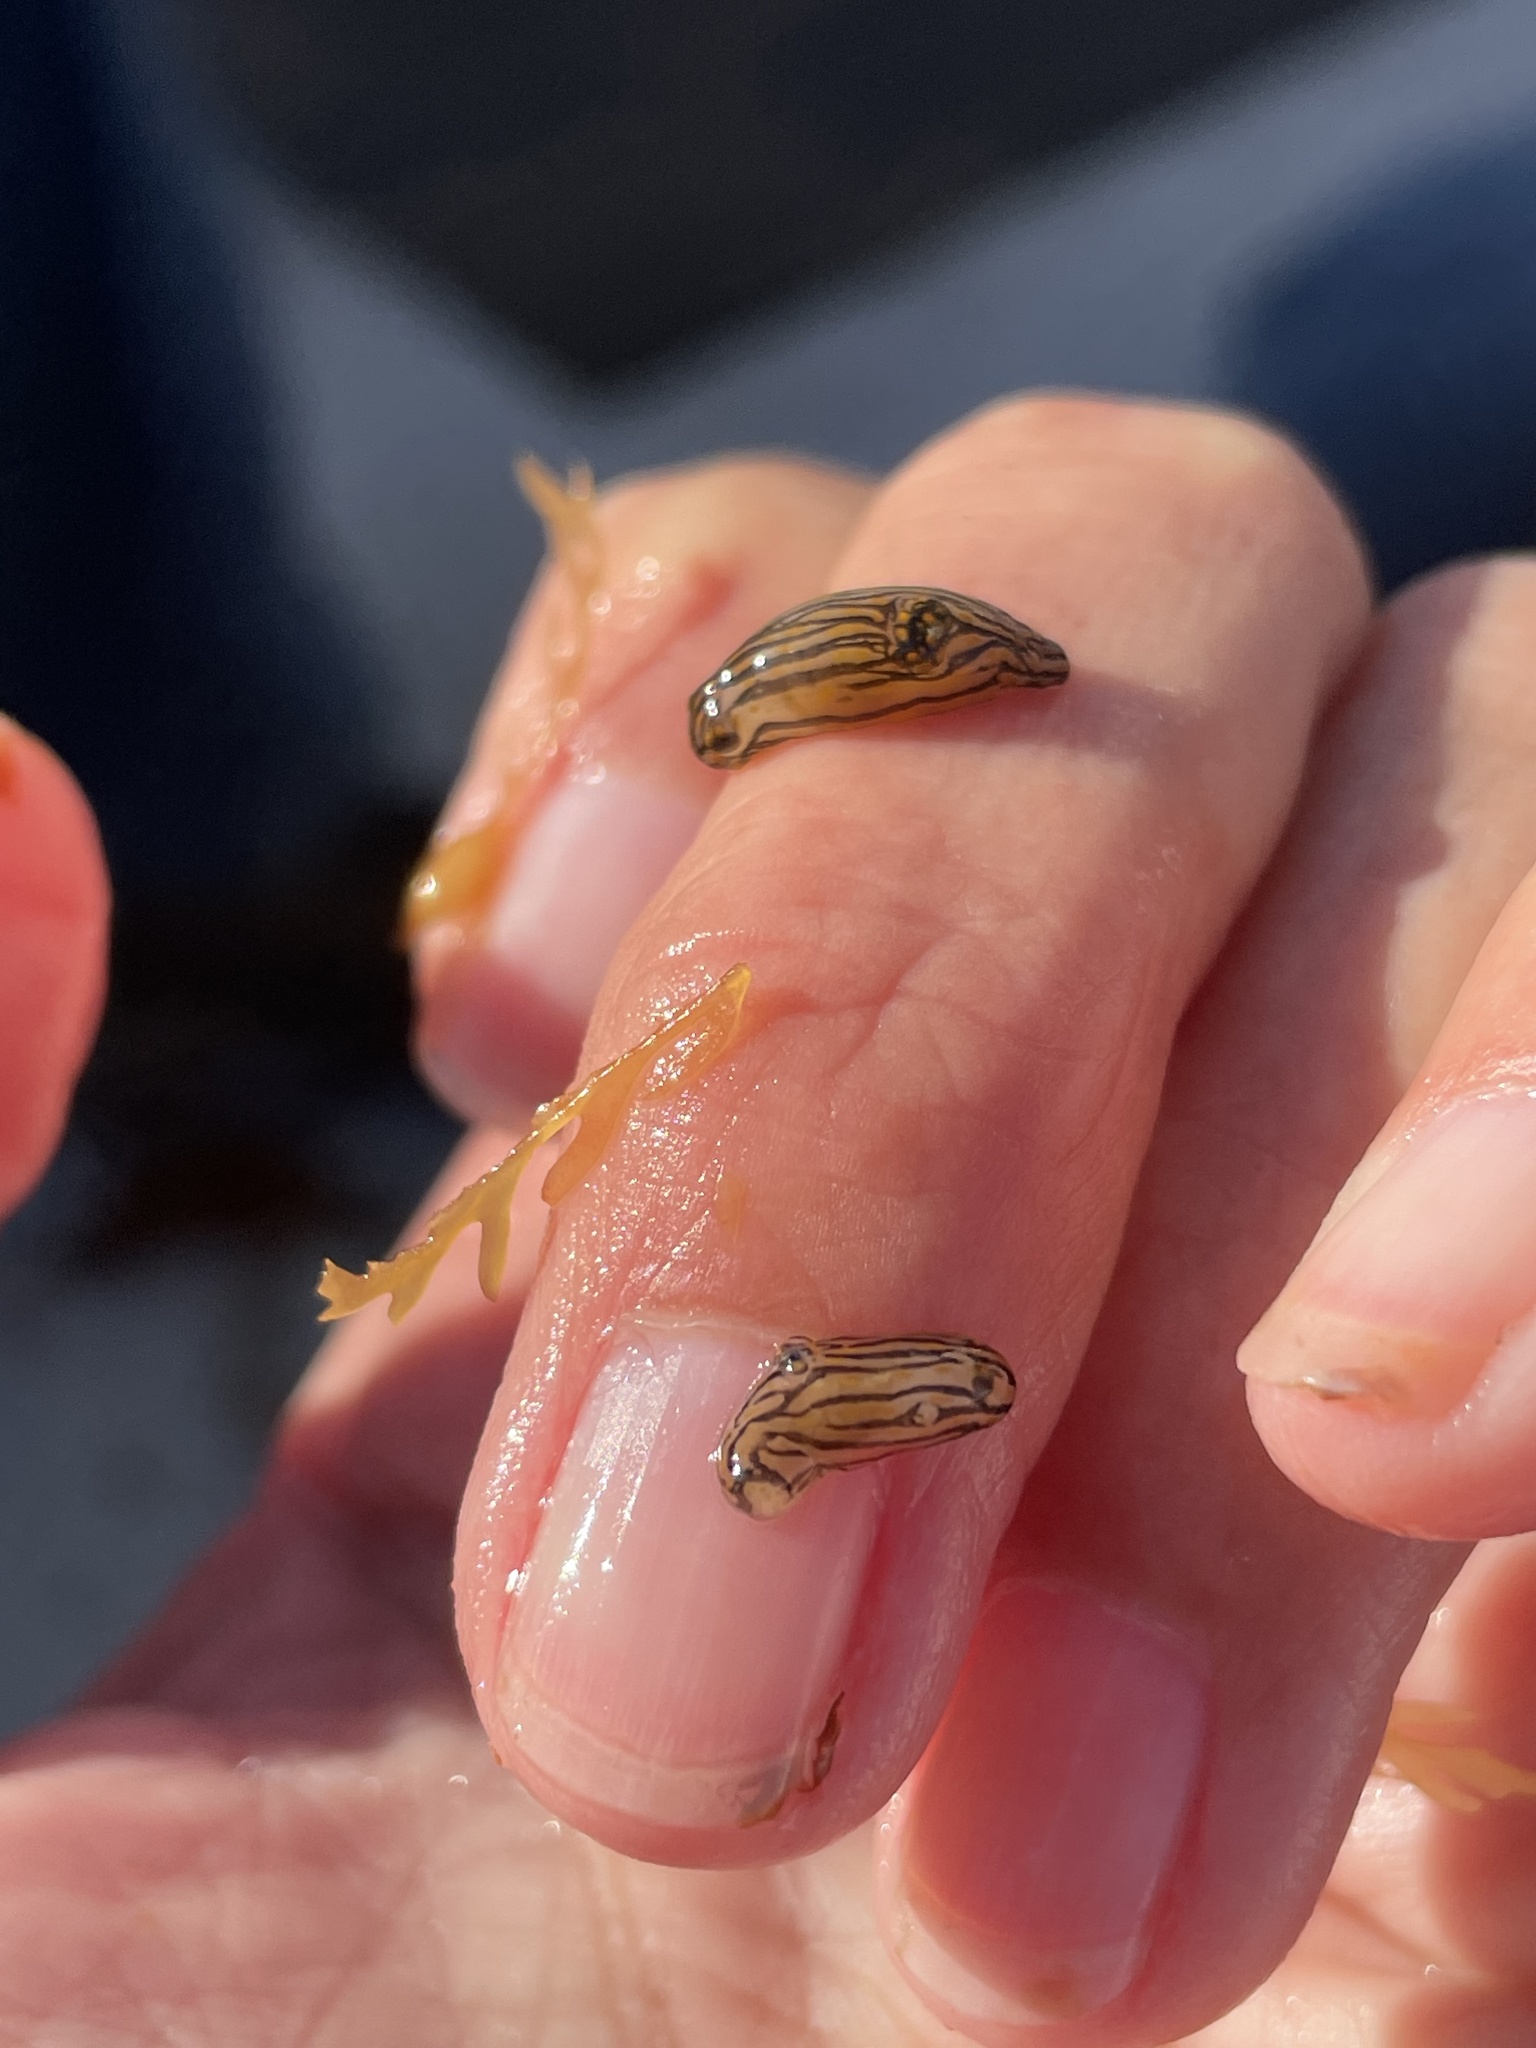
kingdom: Animalia
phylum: Mollusca
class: Gastropoda
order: Nudibranchia
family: Polyceridae
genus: Polycera
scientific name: Polycera atra
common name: Orange-spike polycera
